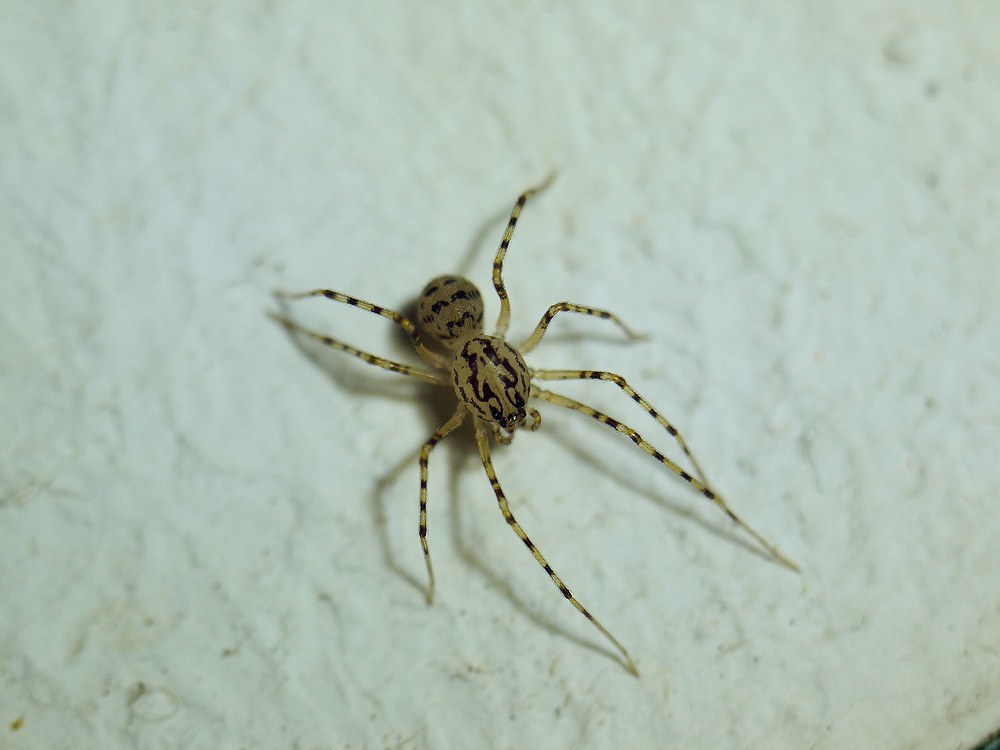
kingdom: Animalia
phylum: Arthropoda
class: Arachnida
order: Araneae
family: Scytodidae
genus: Scytodes
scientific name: Scytodes thoracica
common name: Spitting spider
